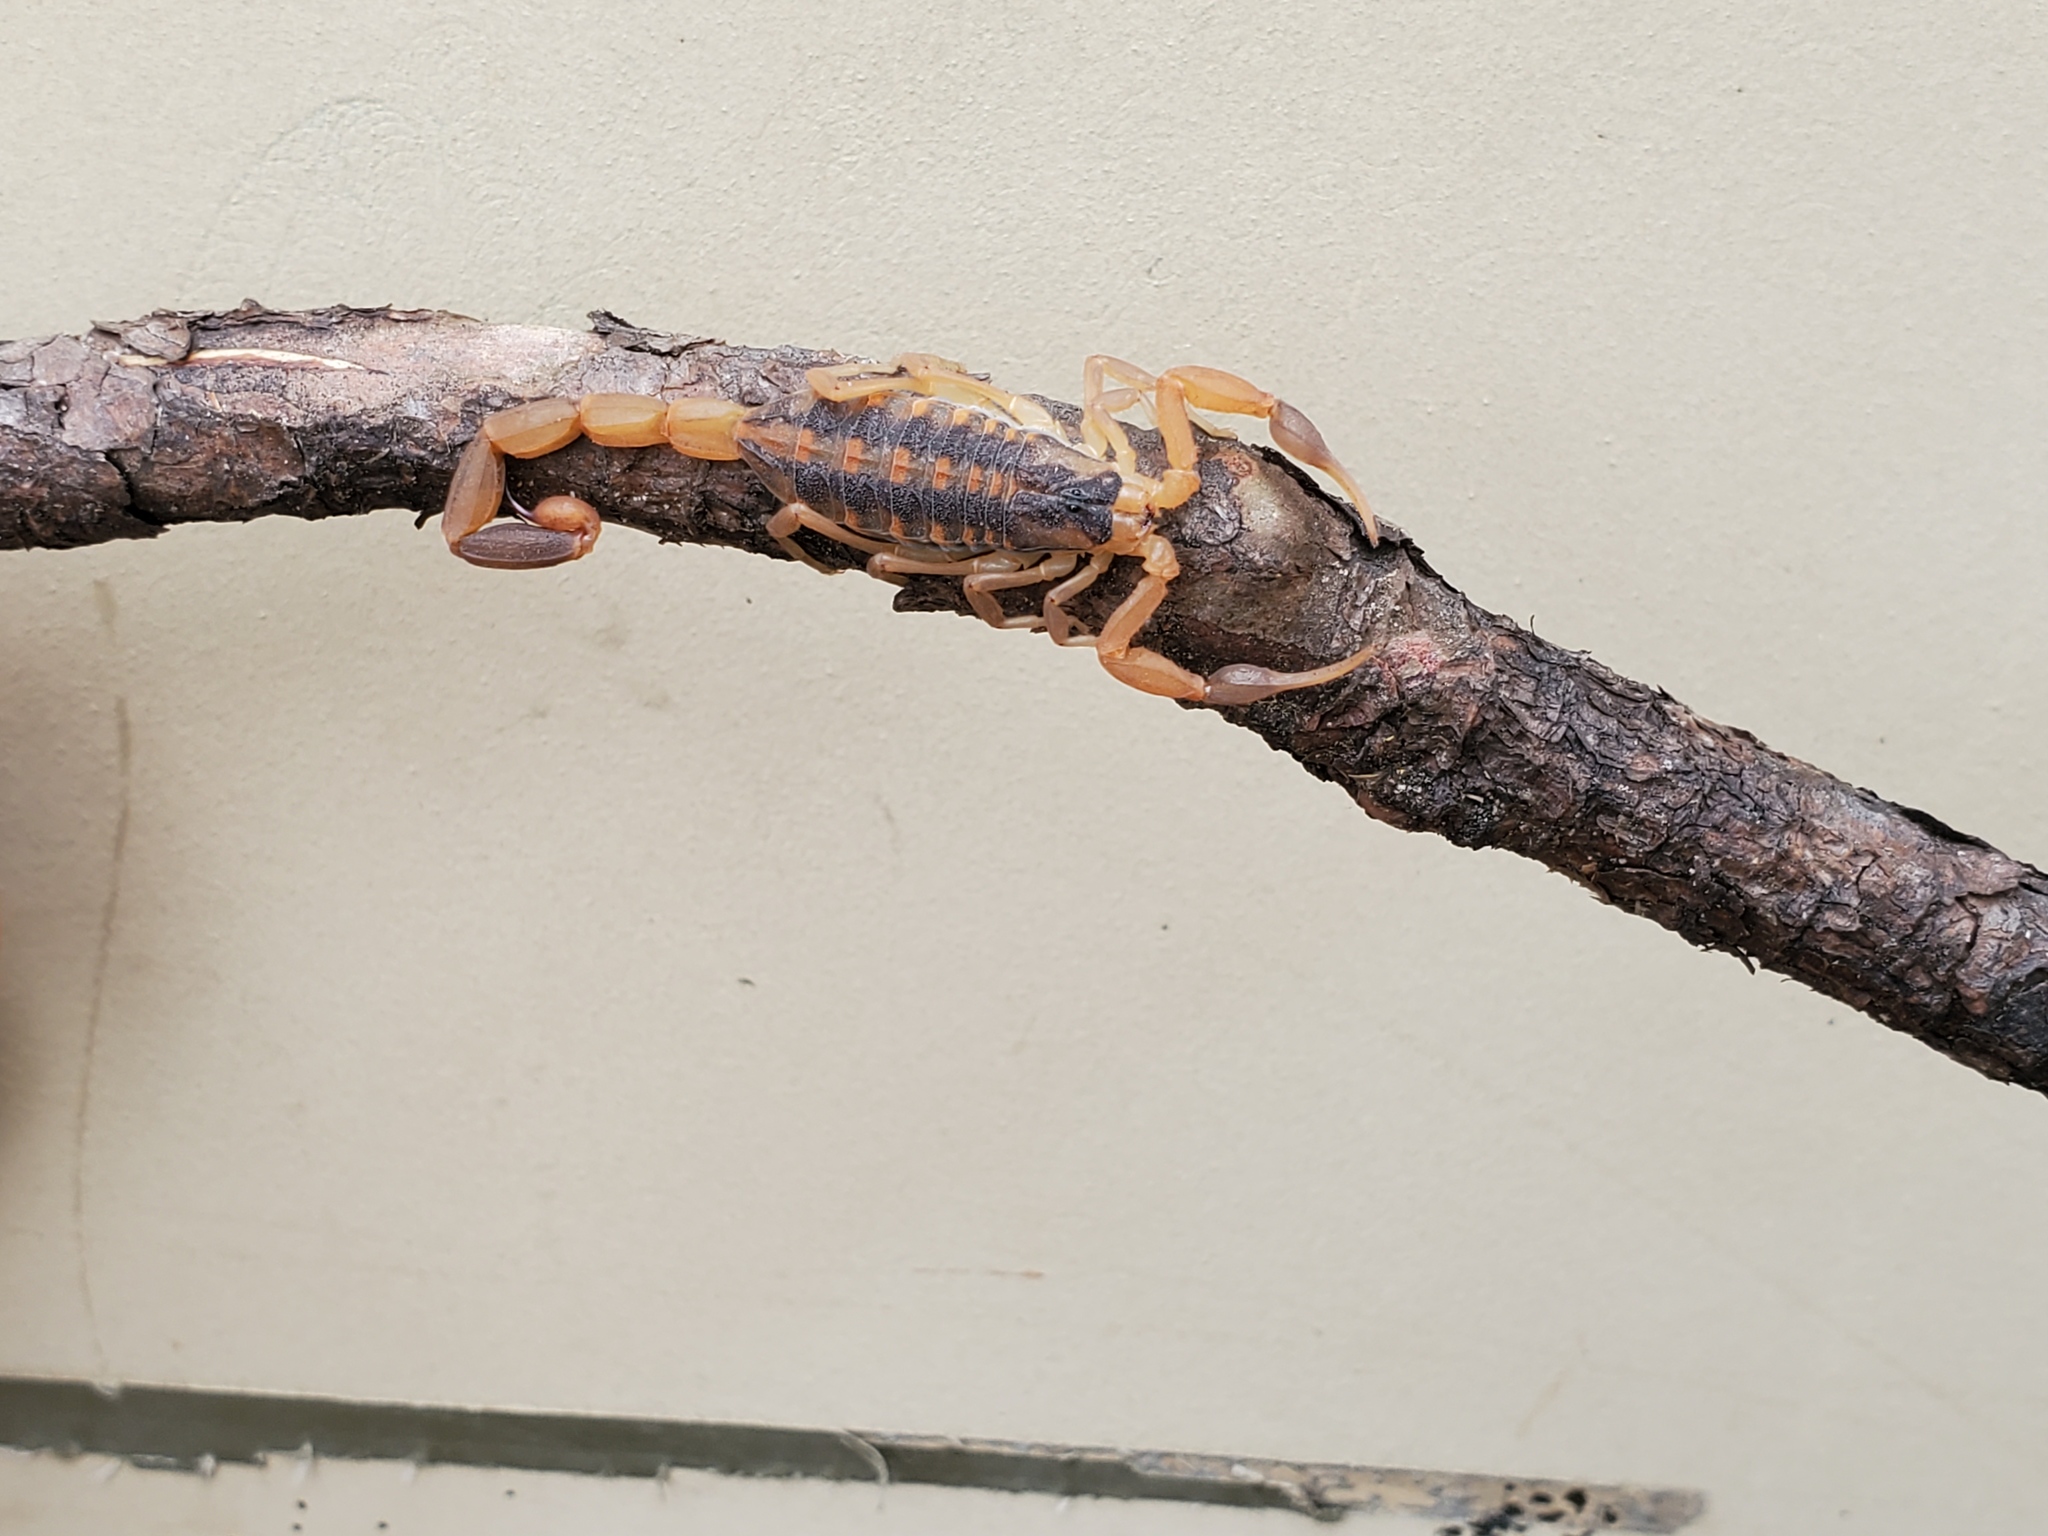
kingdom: Animalia
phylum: Arthropoda
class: Arachnida
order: Scorpiones
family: Buthidae
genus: Centruroides
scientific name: Centruroides vittatus
